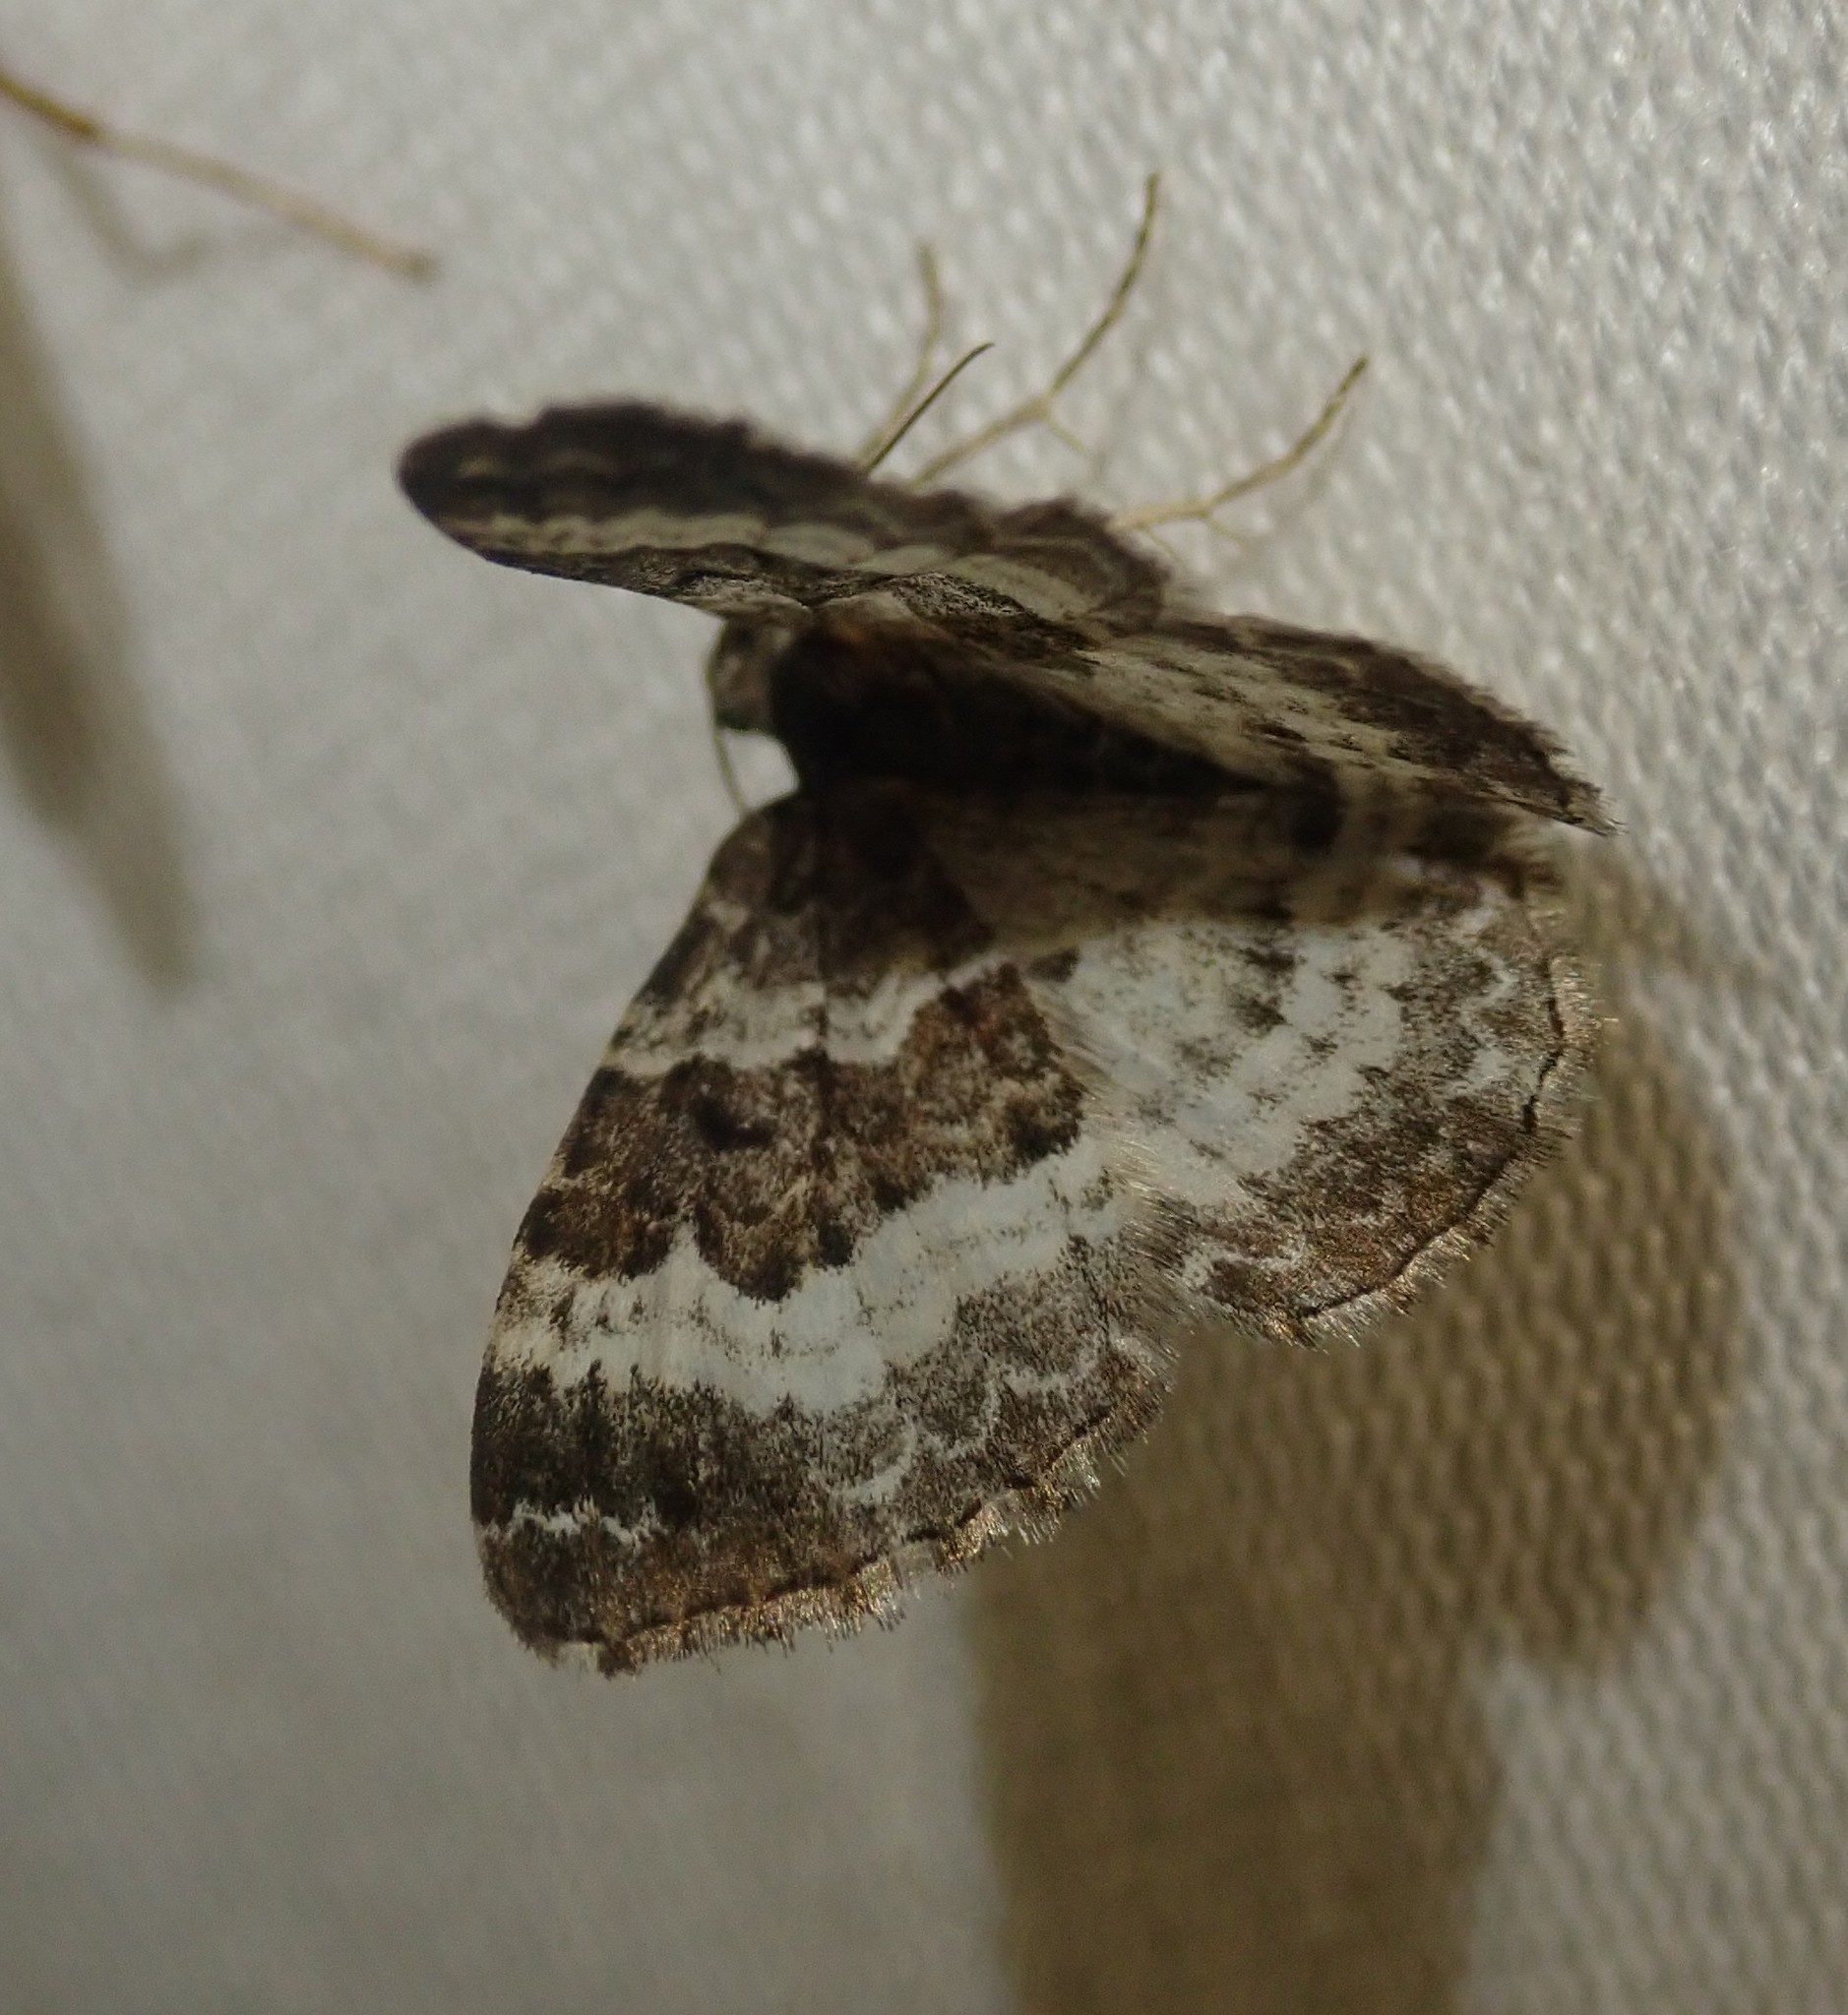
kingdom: Animalia
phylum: Arthropoda
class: Insecta
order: Lepidoptera
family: Geometridae
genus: Epirrhoe
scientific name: Epirrhoe alternata
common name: Common carpet
